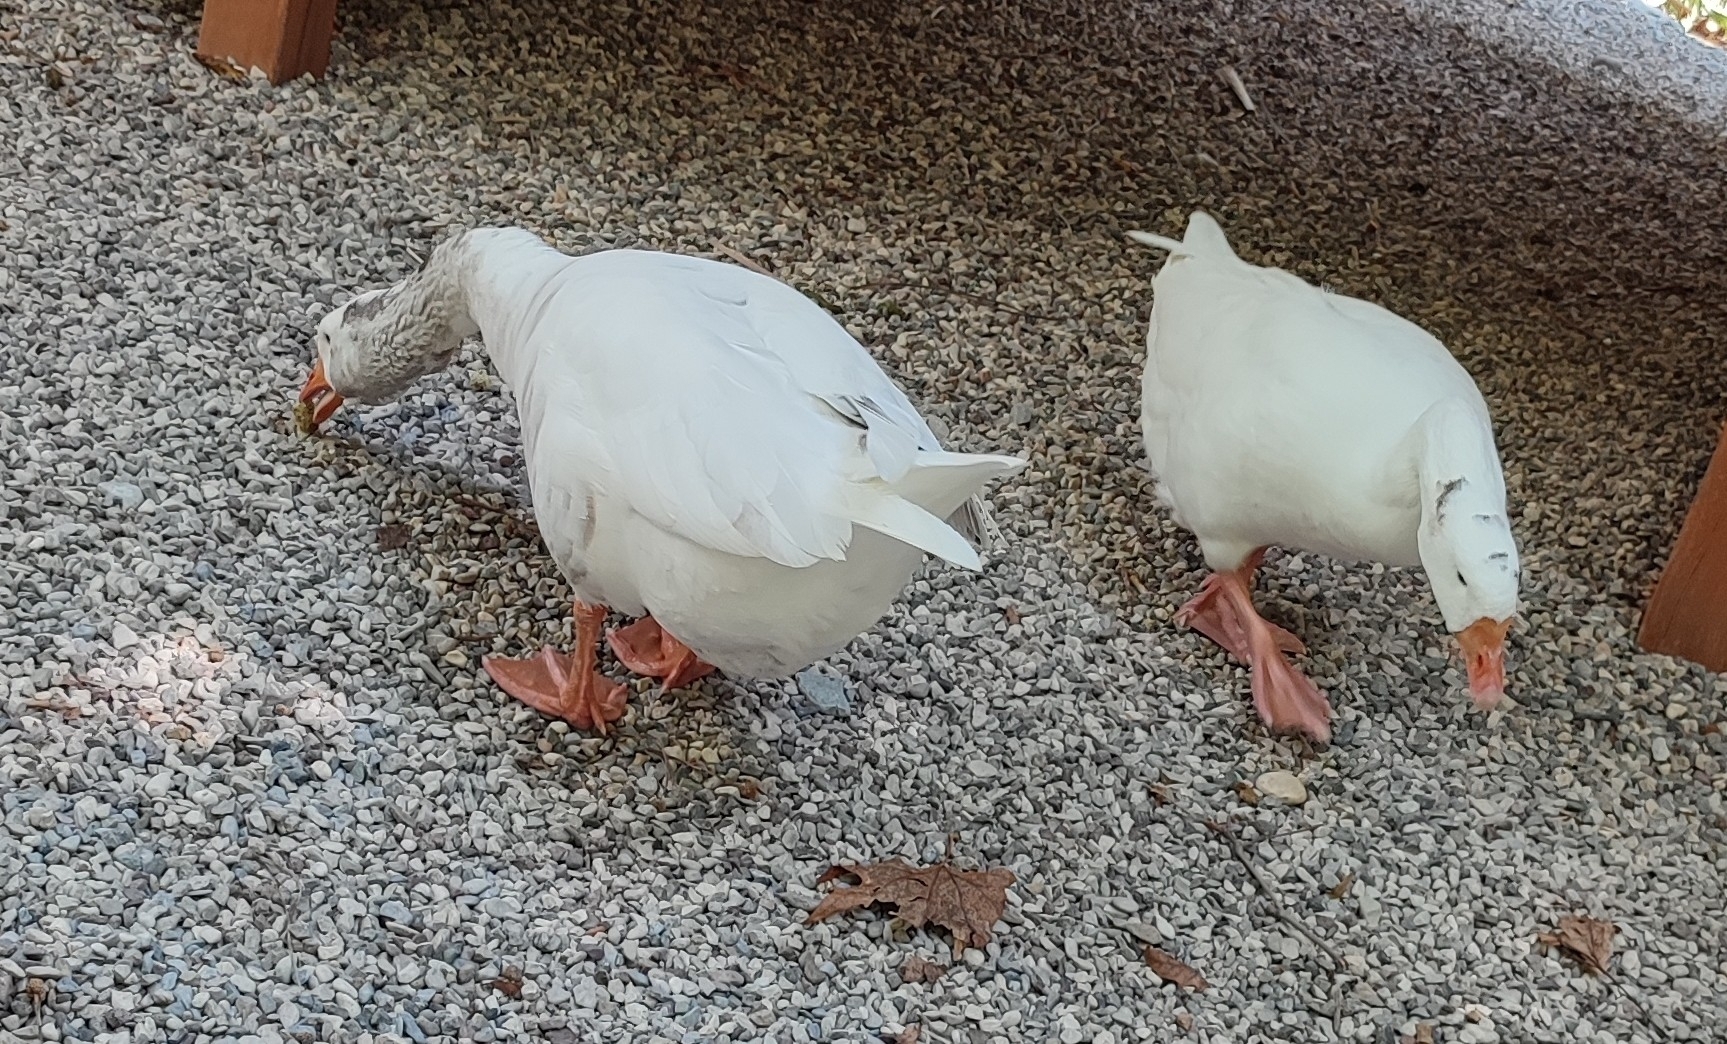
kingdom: Animalia
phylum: Chordata
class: Aves
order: Anseriformes
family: Anatidae
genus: Anser
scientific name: Anser anser
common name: Greylag goose
